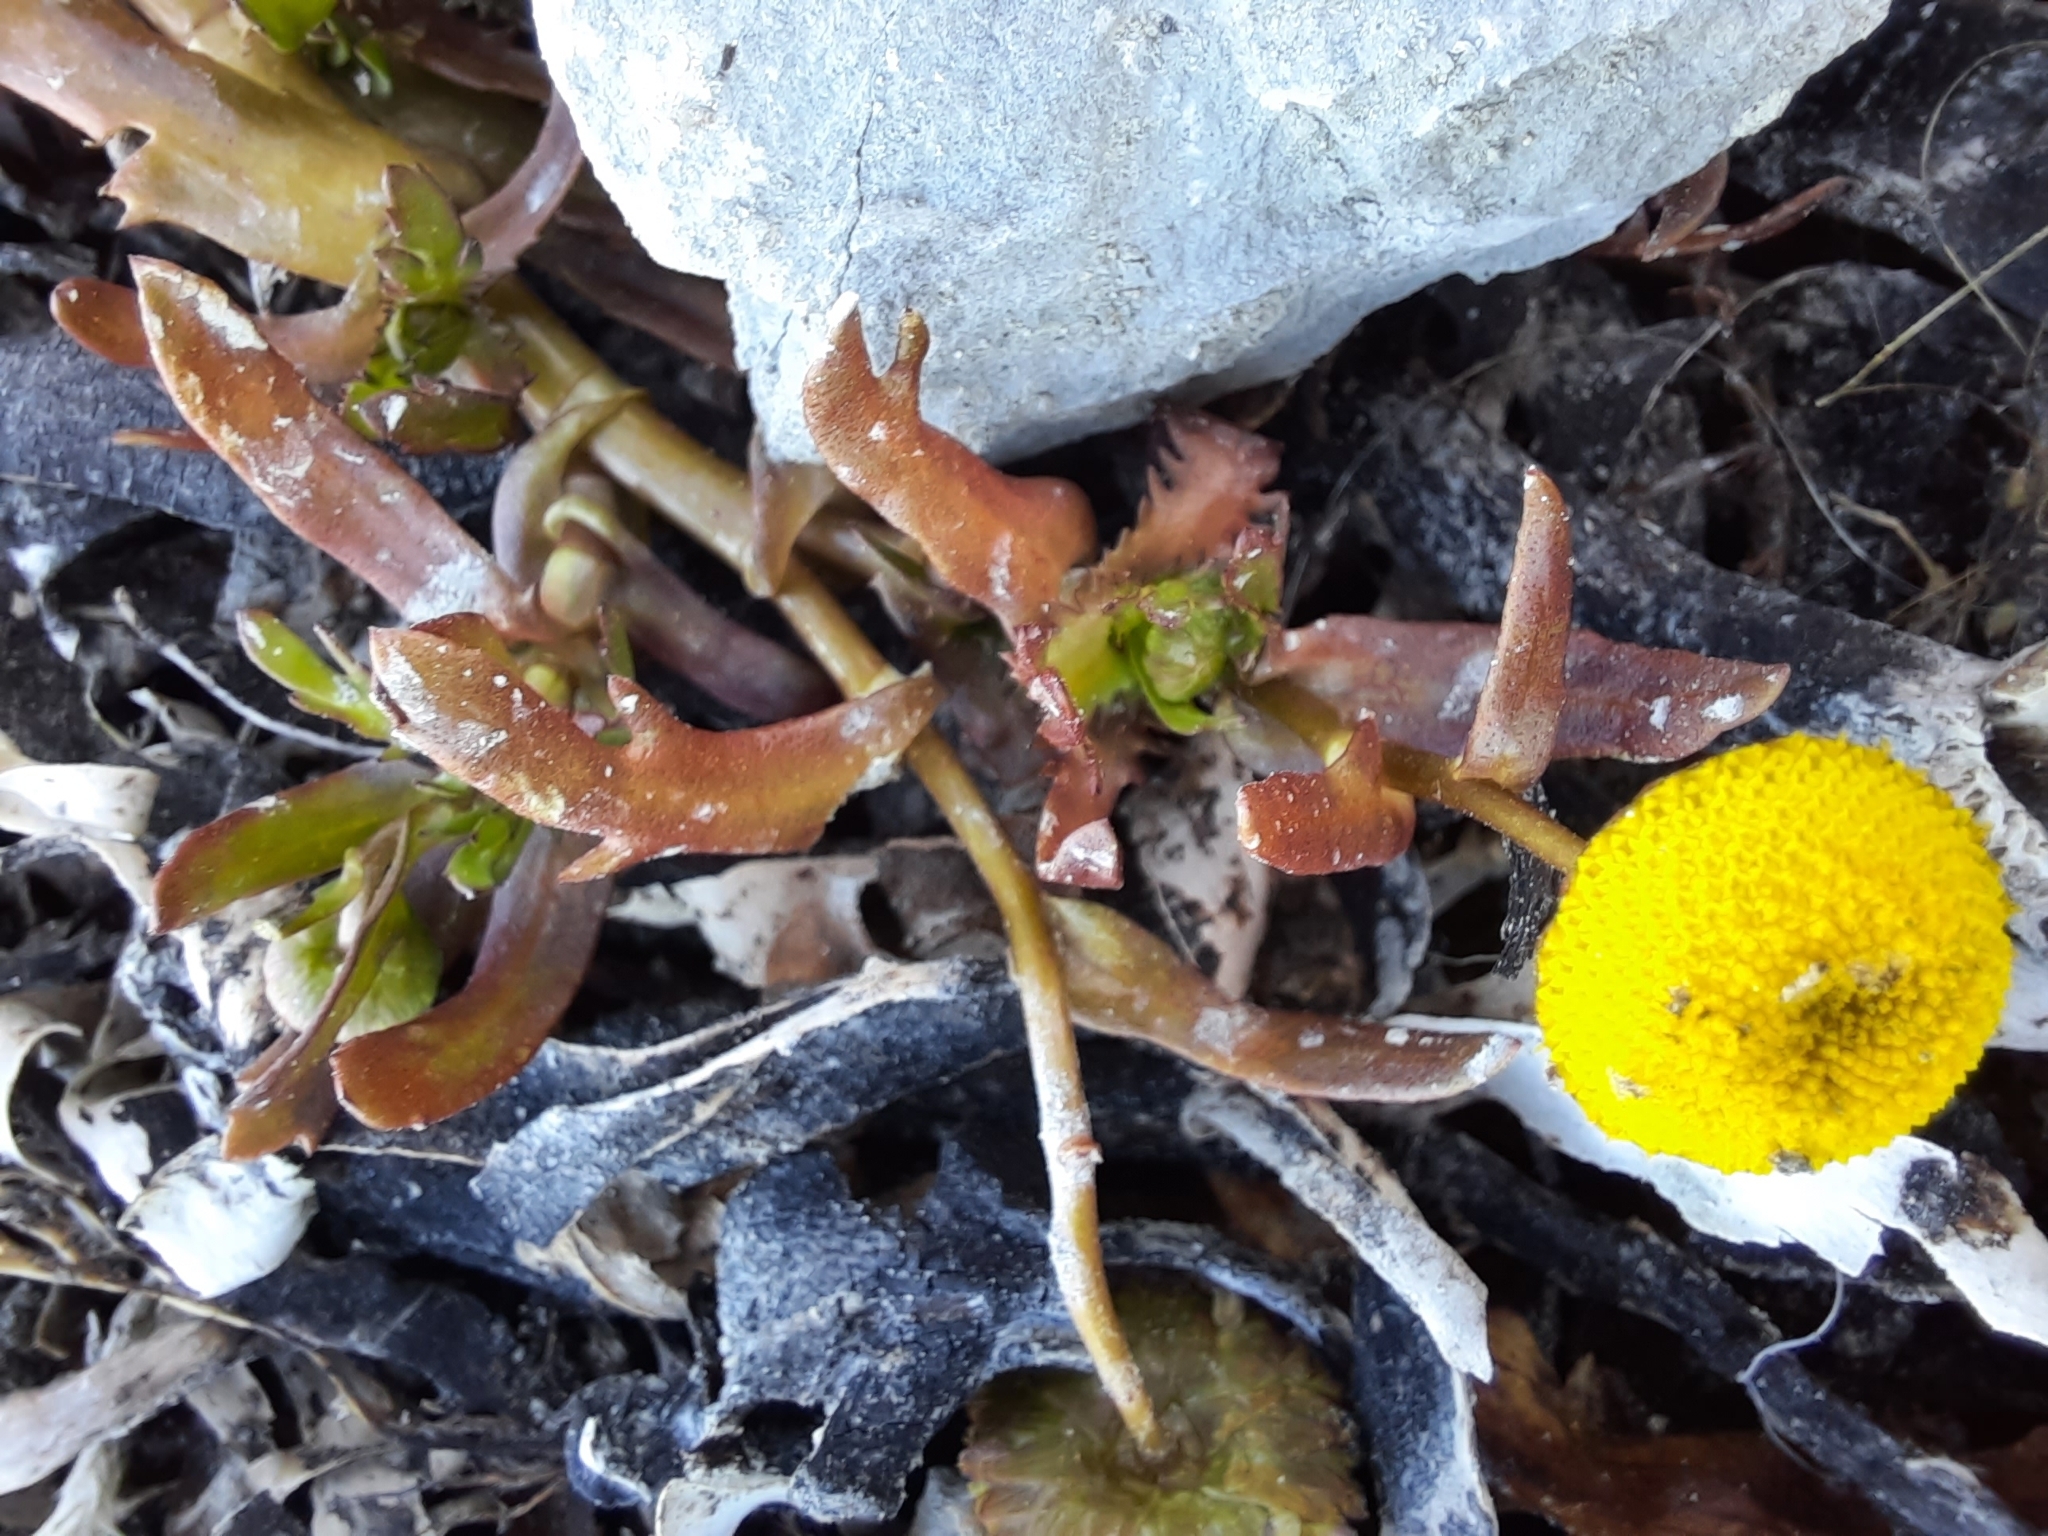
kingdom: Plantae
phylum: Tracheophyta
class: Magnoliopsida
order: Asterales
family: Asteraceae
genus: Cotula
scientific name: Cotula coronopifolia
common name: Buttonweed
